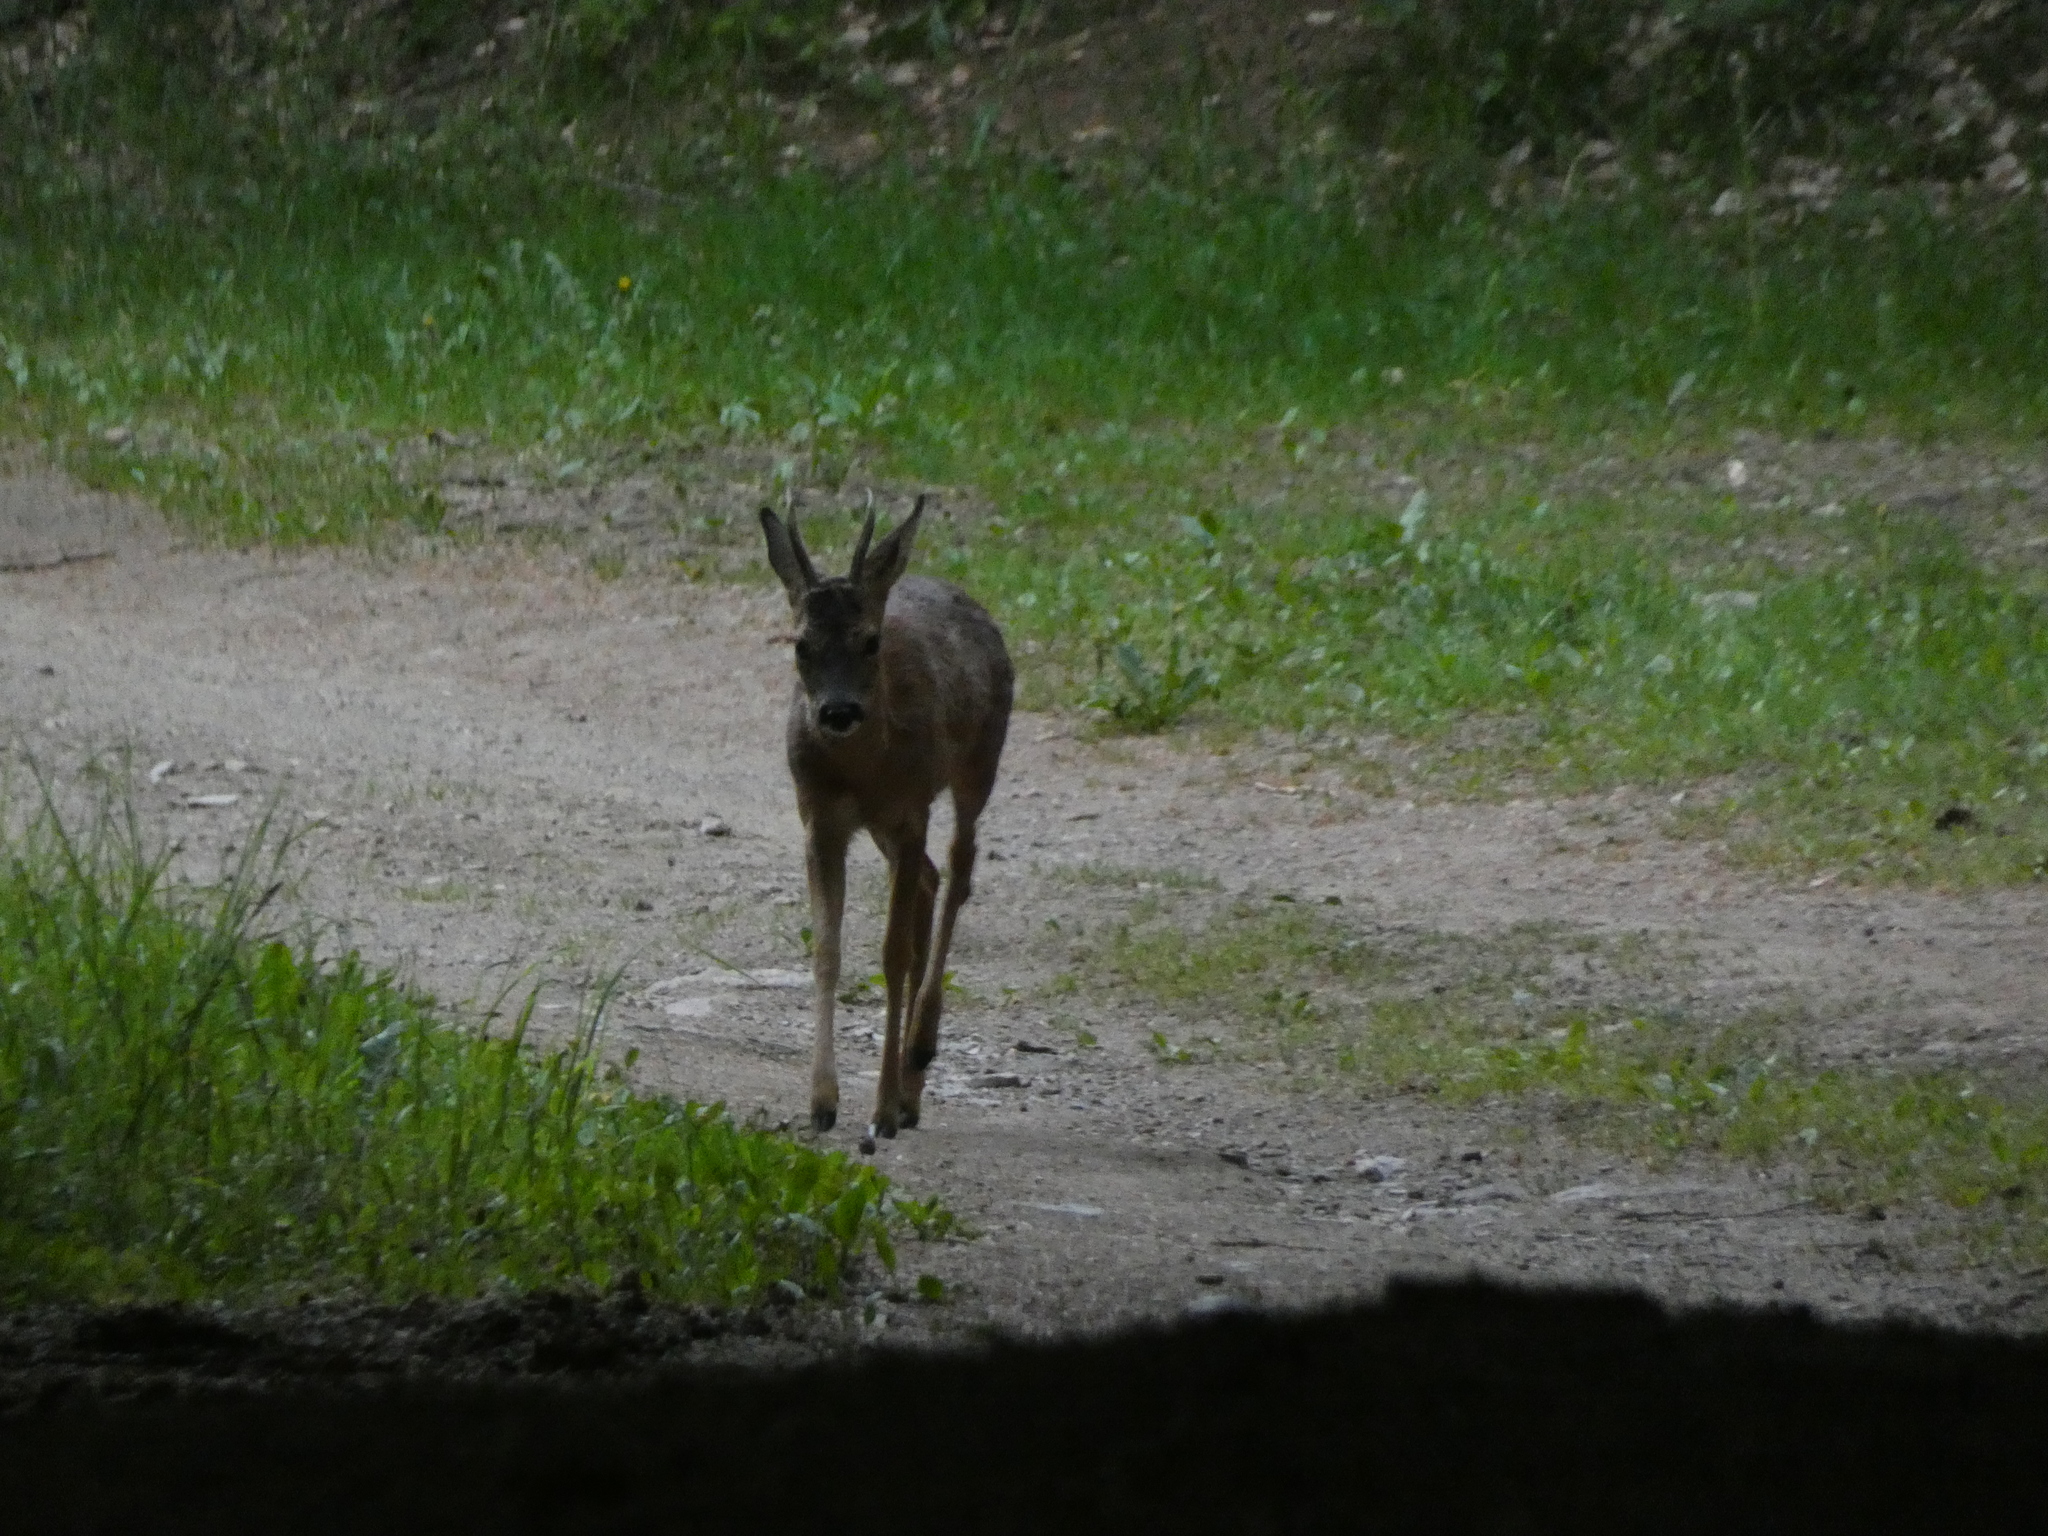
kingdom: Animalia
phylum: Chordata
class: Mammalia
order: Artiodactyla
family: Cervidae
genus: Capreolus
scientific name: Capreolus capreolus
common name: Western roe deer
